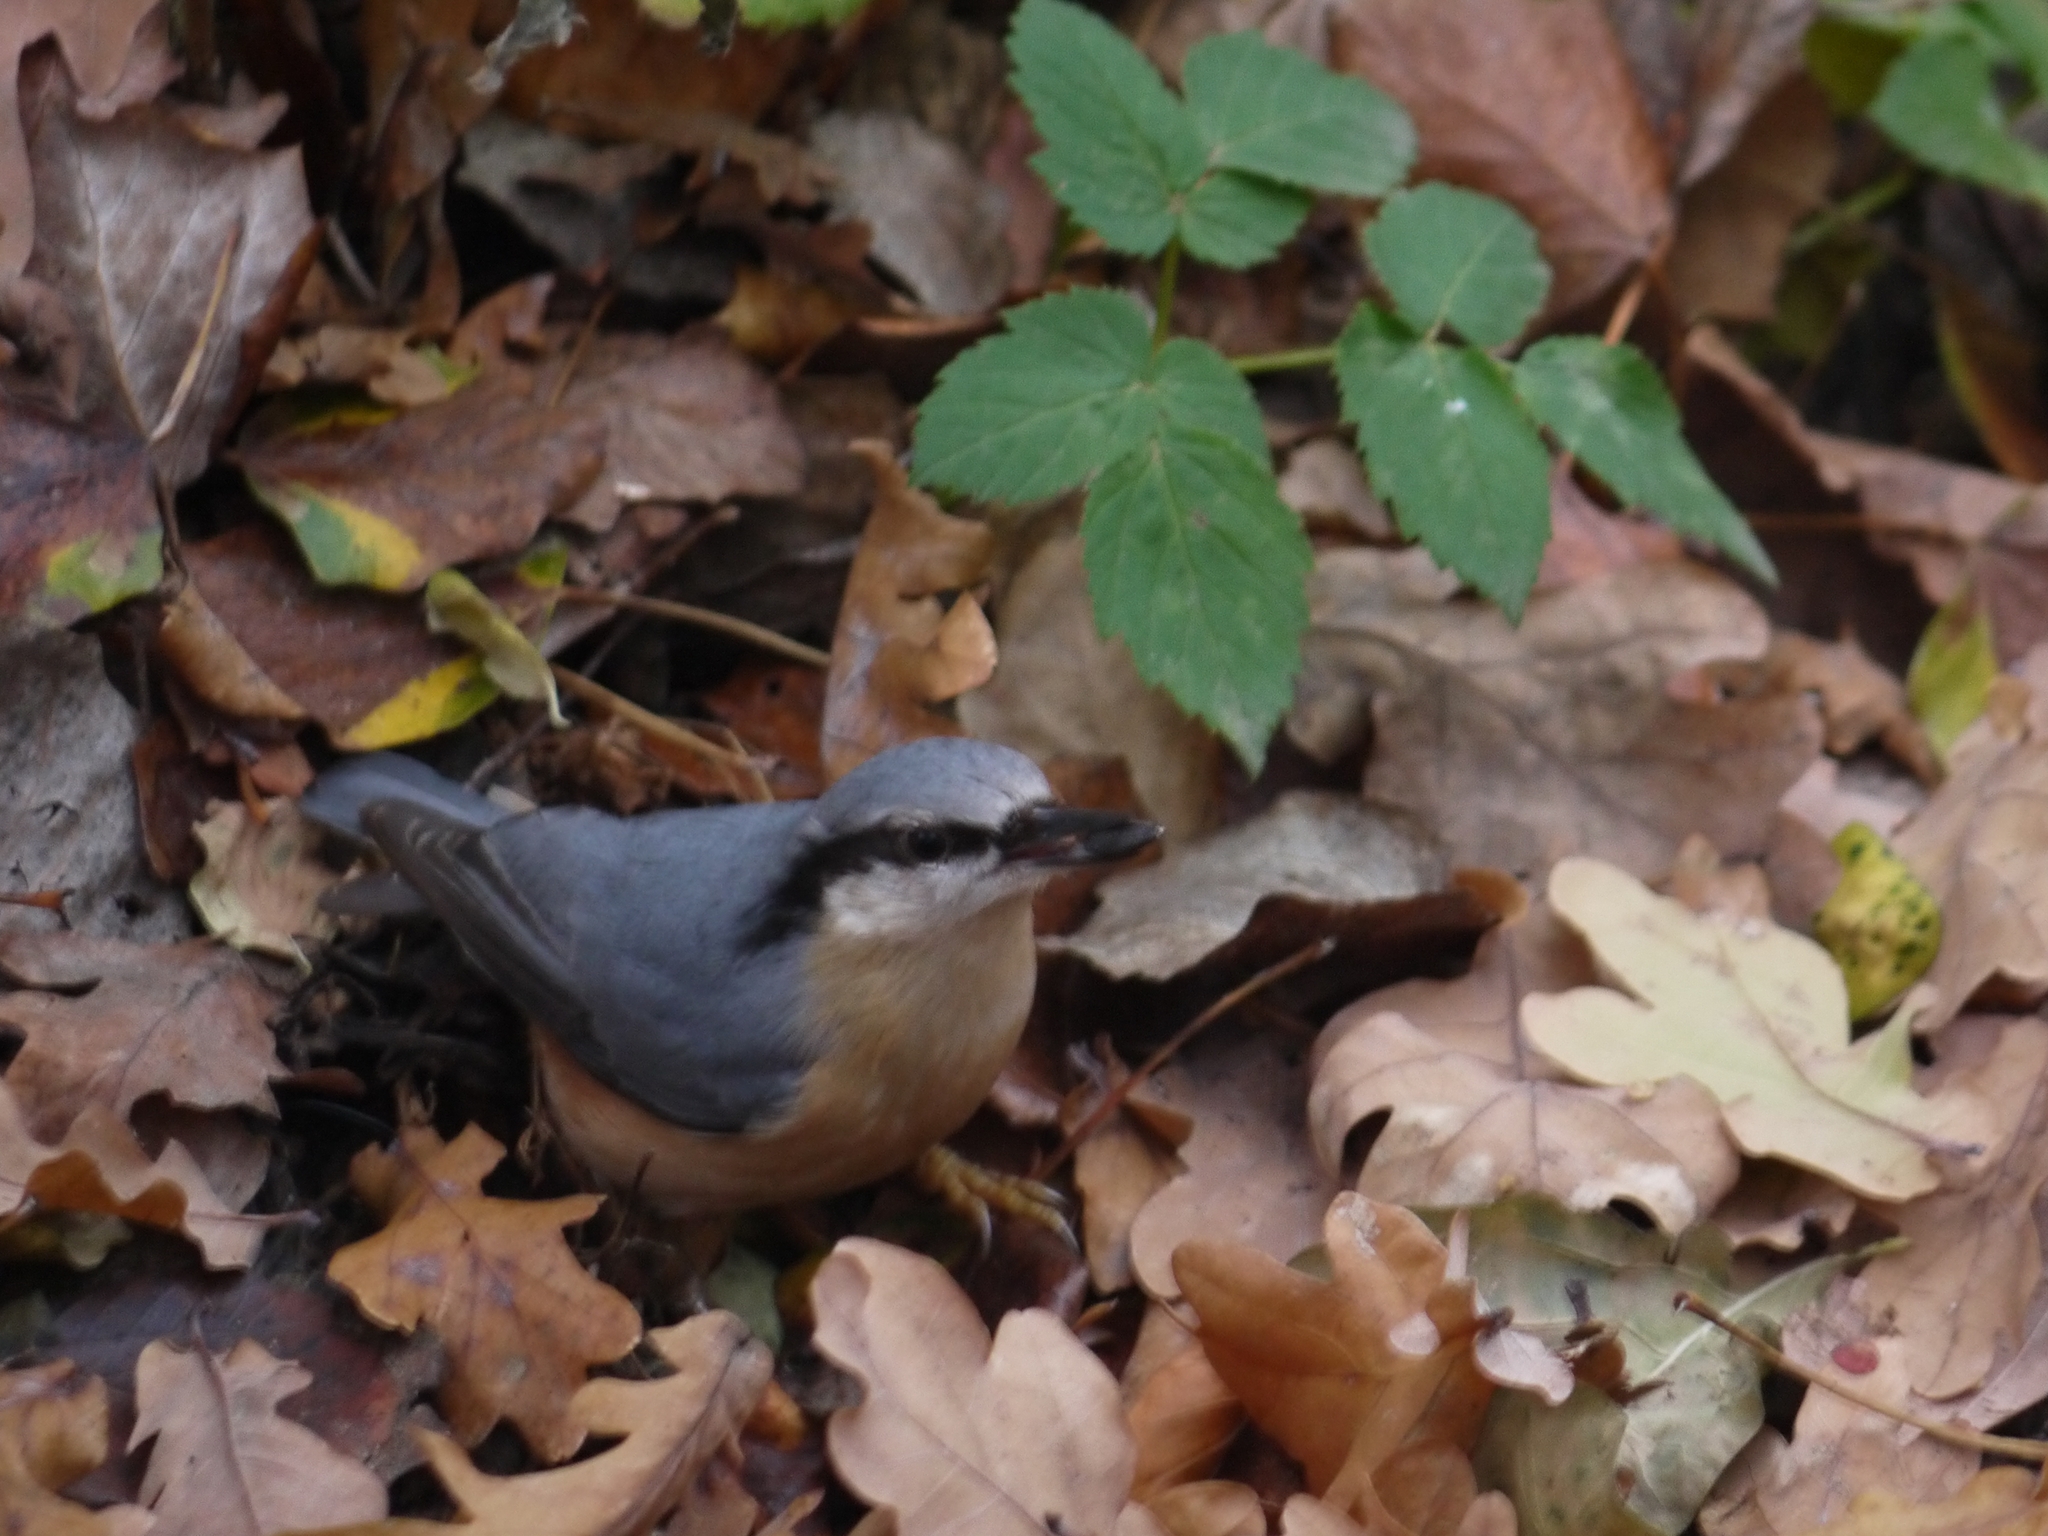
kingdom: Animalia
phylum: Chordata
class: Aves
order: Passeriformes
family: Sittidae
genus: Sitta
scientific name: Sitta europaea
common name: Eurasian nuthatch
